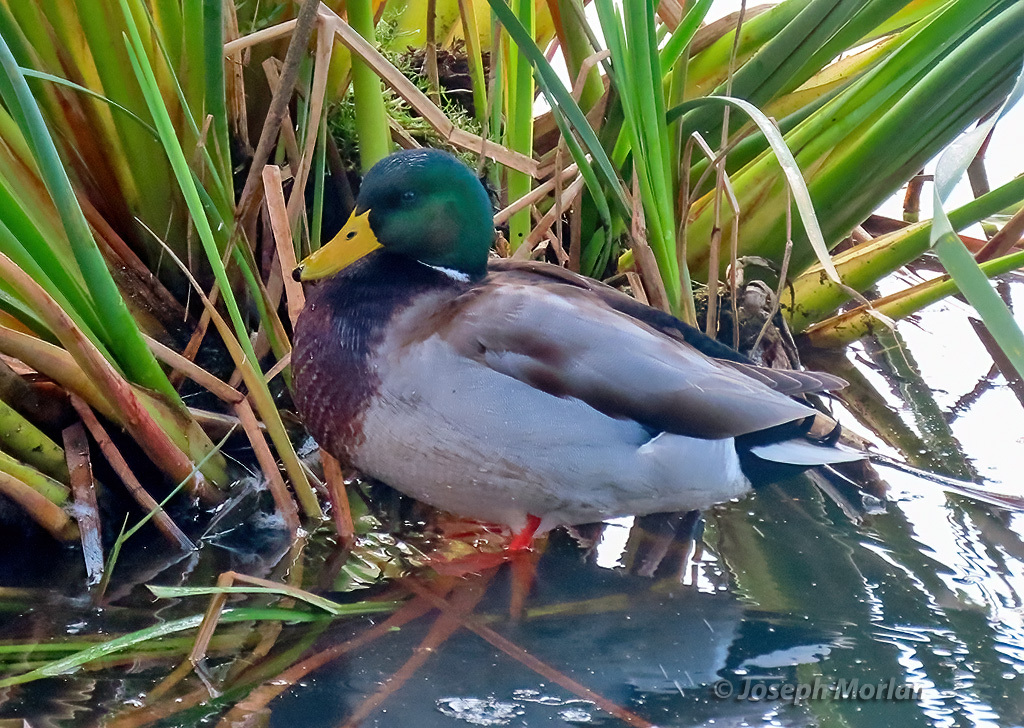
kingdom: Animalia
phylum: Chordata
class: Aves
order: Anseriformes
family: Anatidae
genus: Anas
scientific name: Anas platyrhynchos
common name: Mallard
